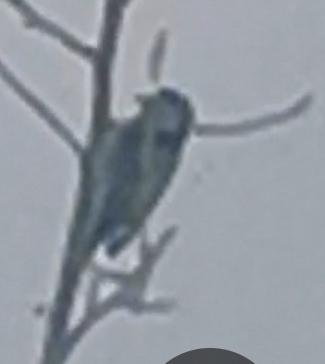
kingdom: Animalia
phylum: Chordata
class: Aves
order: Piciformes
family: Picidae
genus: Dryobates
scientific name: Dryobates minor
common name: Lesser spotted woodpecker
